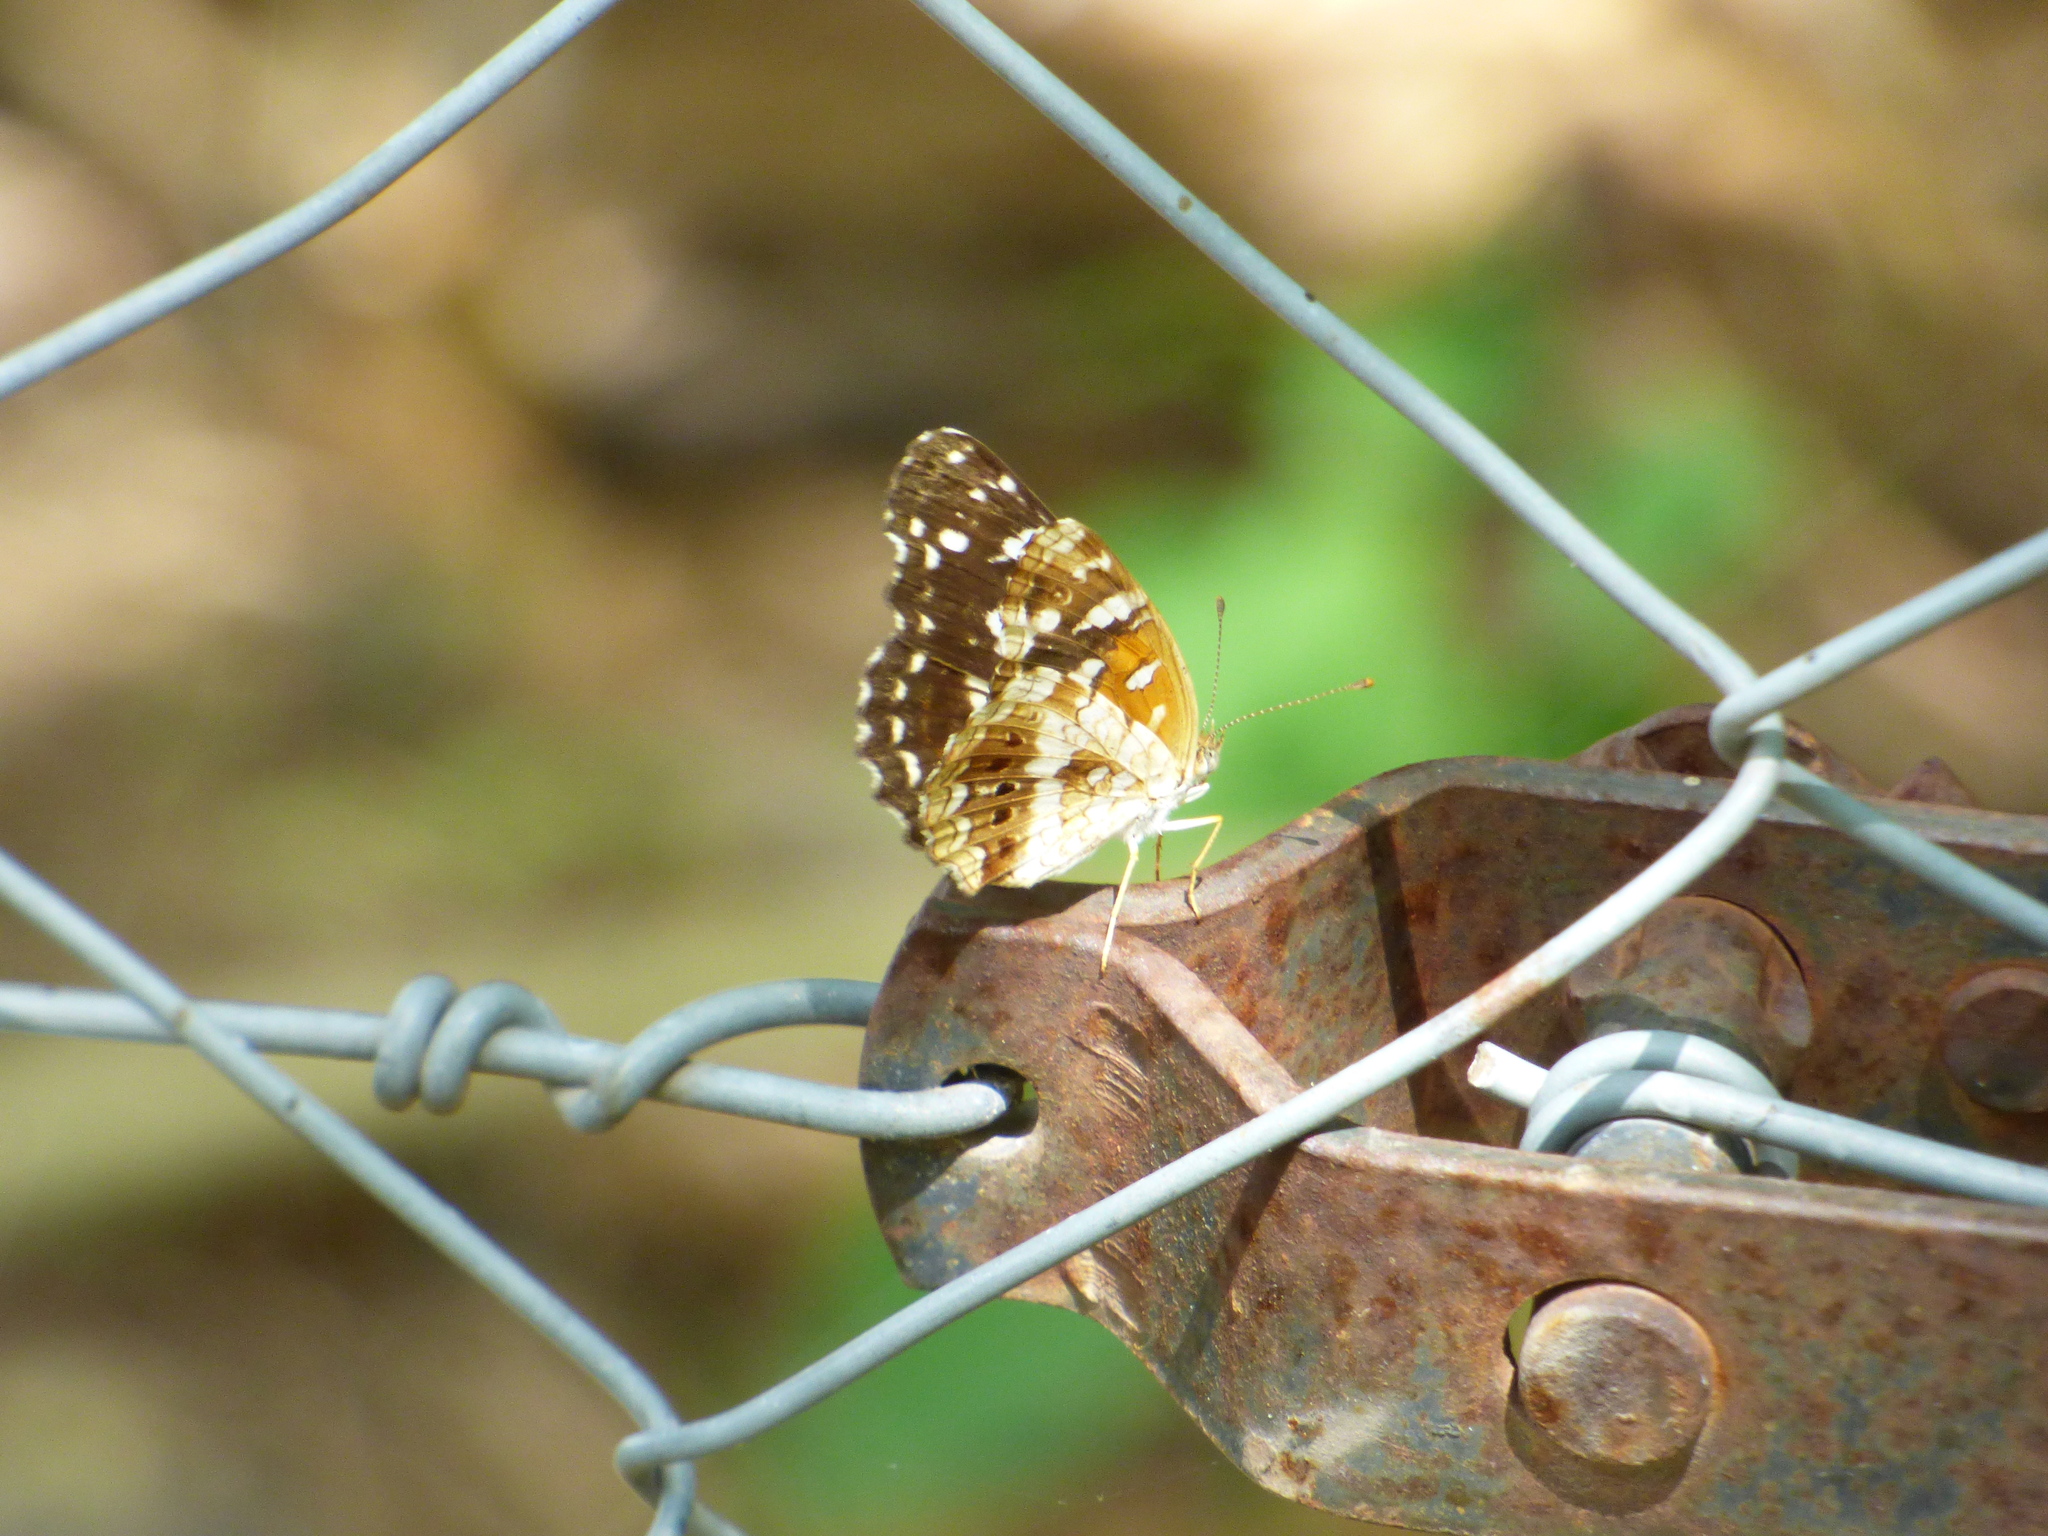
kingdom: Animalia
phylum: Arthropoda
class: Insecta
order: Lepidoptera
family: Nymphalidae
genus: Ortilia
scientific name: Ortilia ithra
